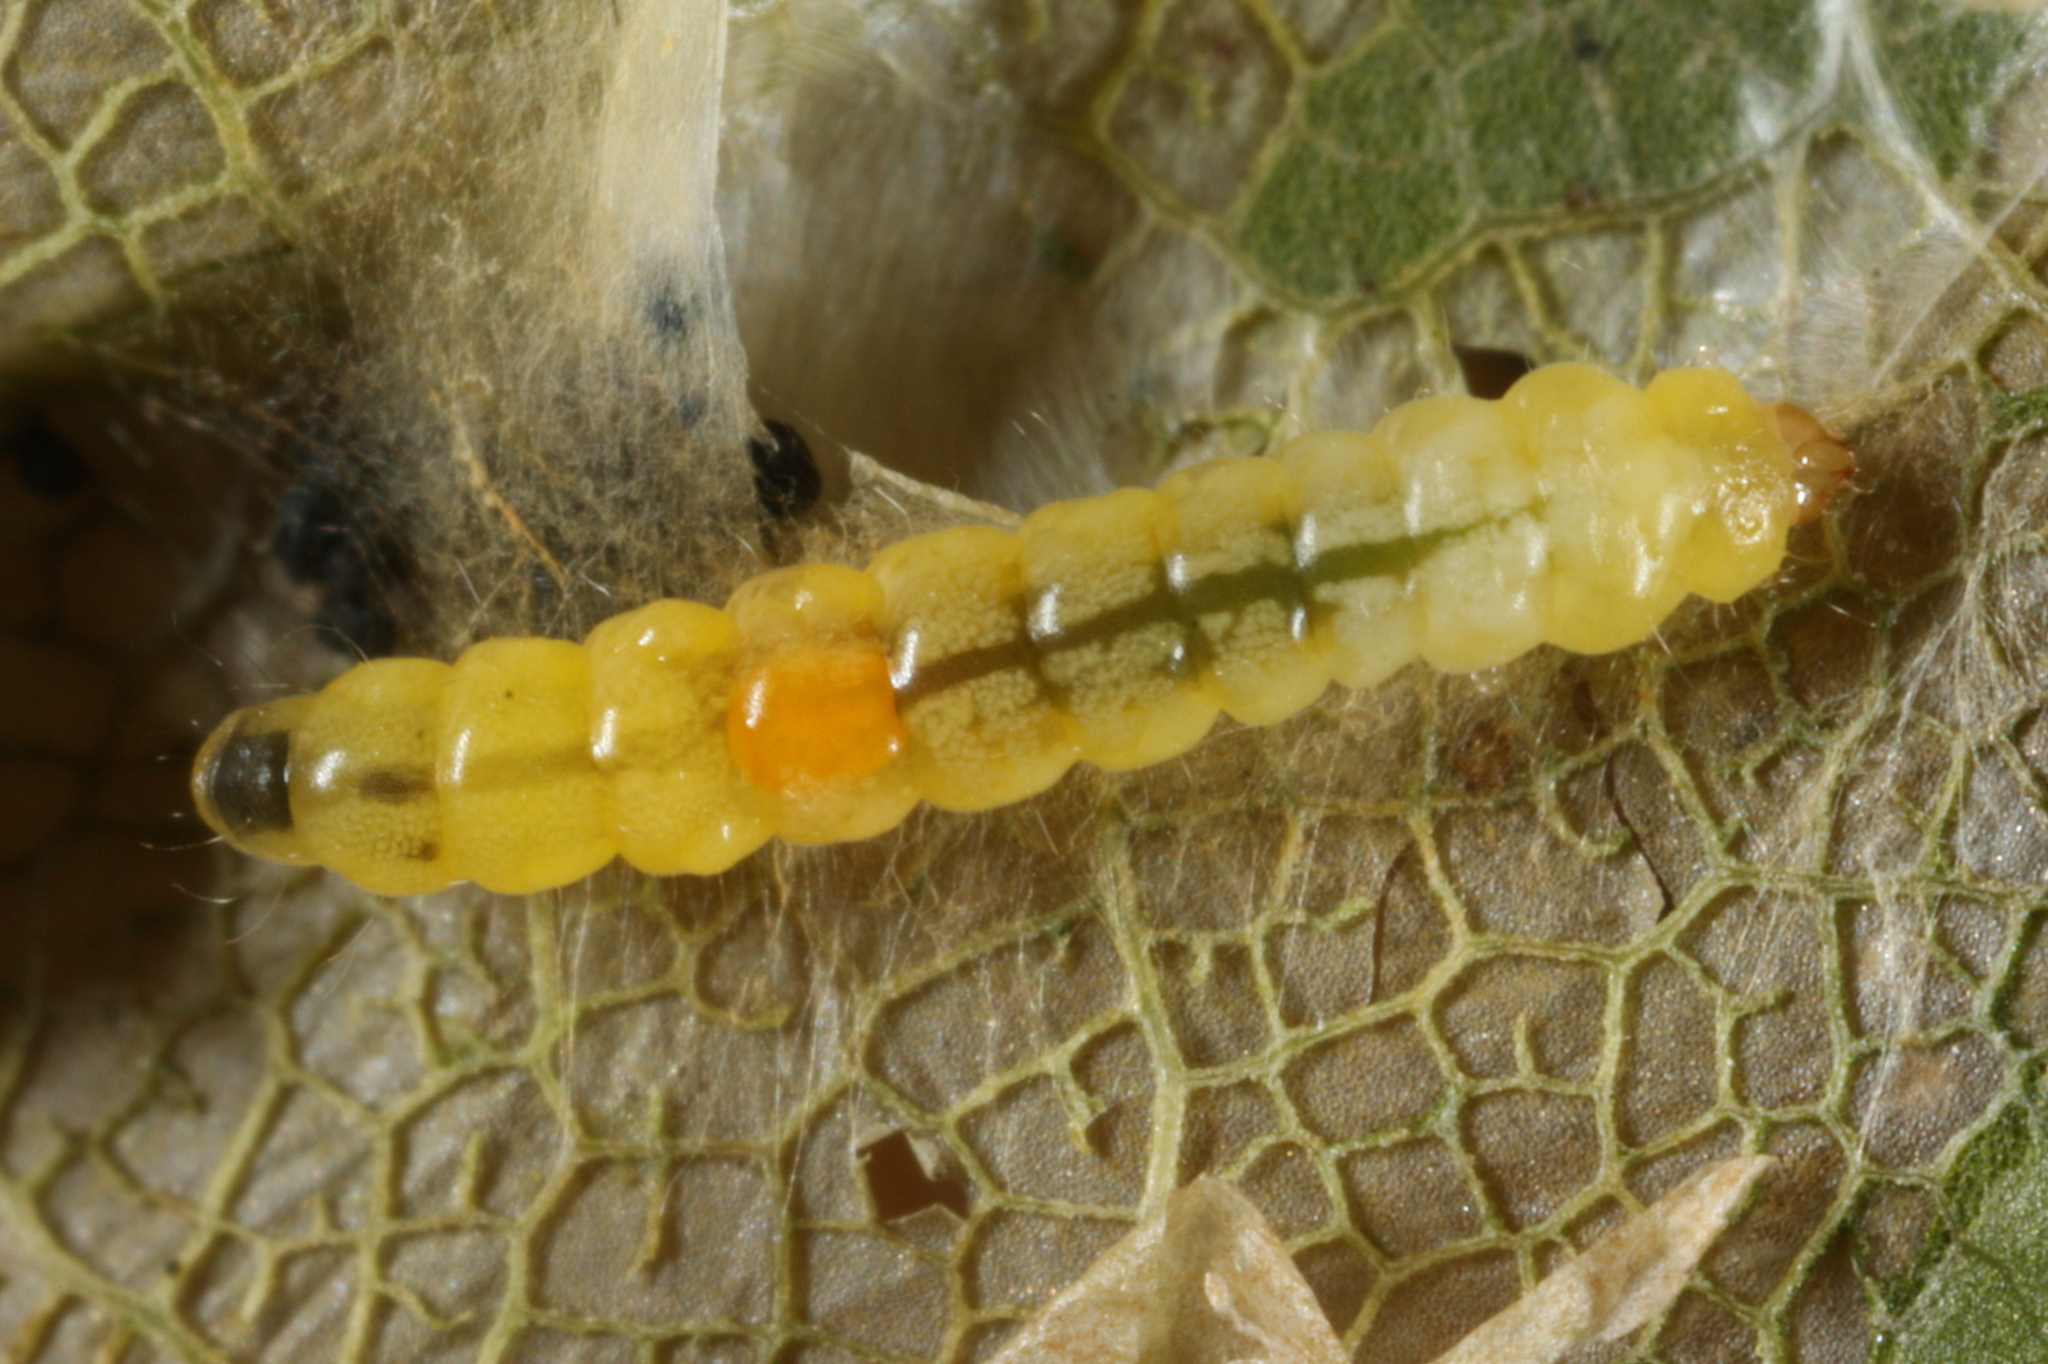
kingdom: Animalia
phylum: Arthropoda
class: Insecta
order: Lepidoptera
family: Gracillariidae
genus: Phyllonorycter
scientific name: Phyllonorycter joannisi
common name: White-bodied midget
